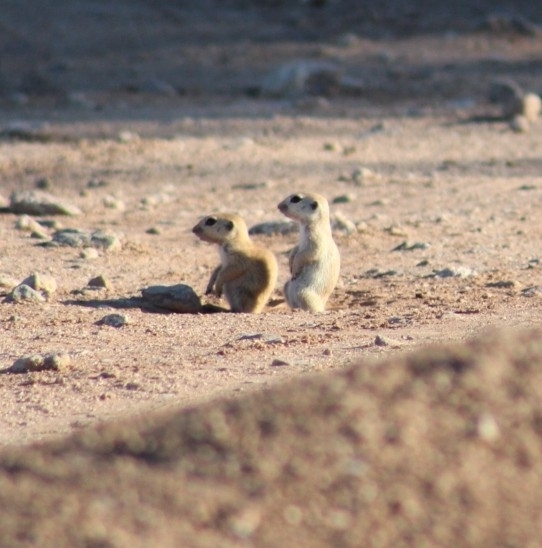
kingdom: Animalia
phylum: Chordata
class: Mammalia
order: Rodentia
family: Sciuridae
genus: Xerospermophilus
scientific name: Xerospermophilus tereticaudus
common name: Round-tailed ground squirrel
